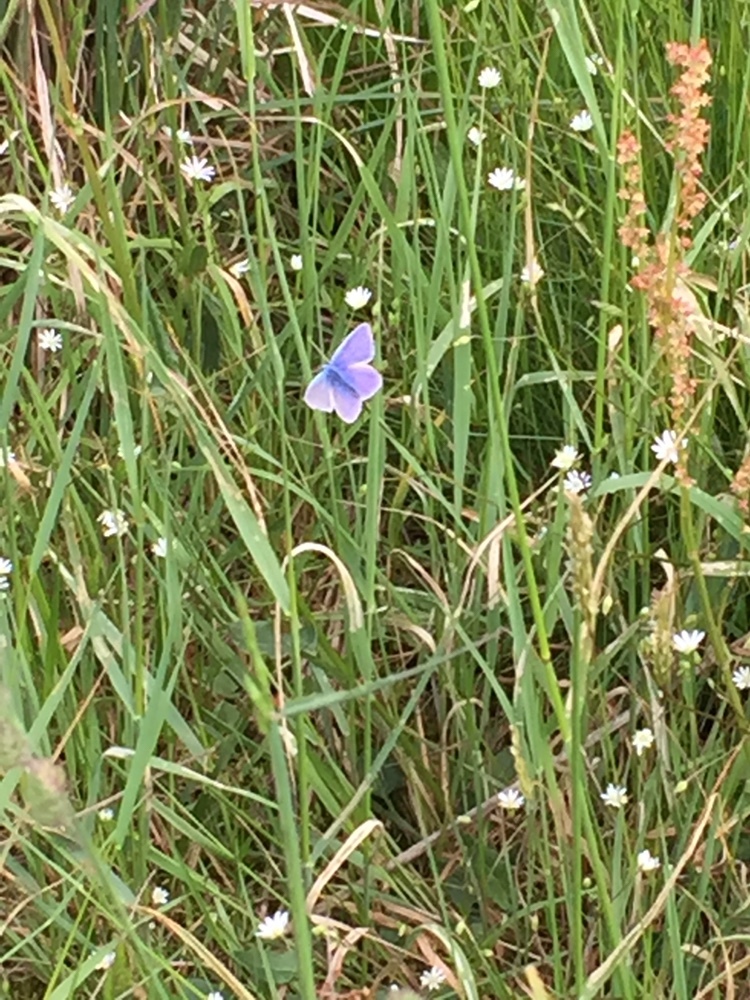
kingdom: Animalia
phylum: Arthropoda
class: Insecta
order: Lepidoptera
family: Lycaenidae
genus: Polyommatus
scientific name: Polyommatus icarus
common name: Common blue
